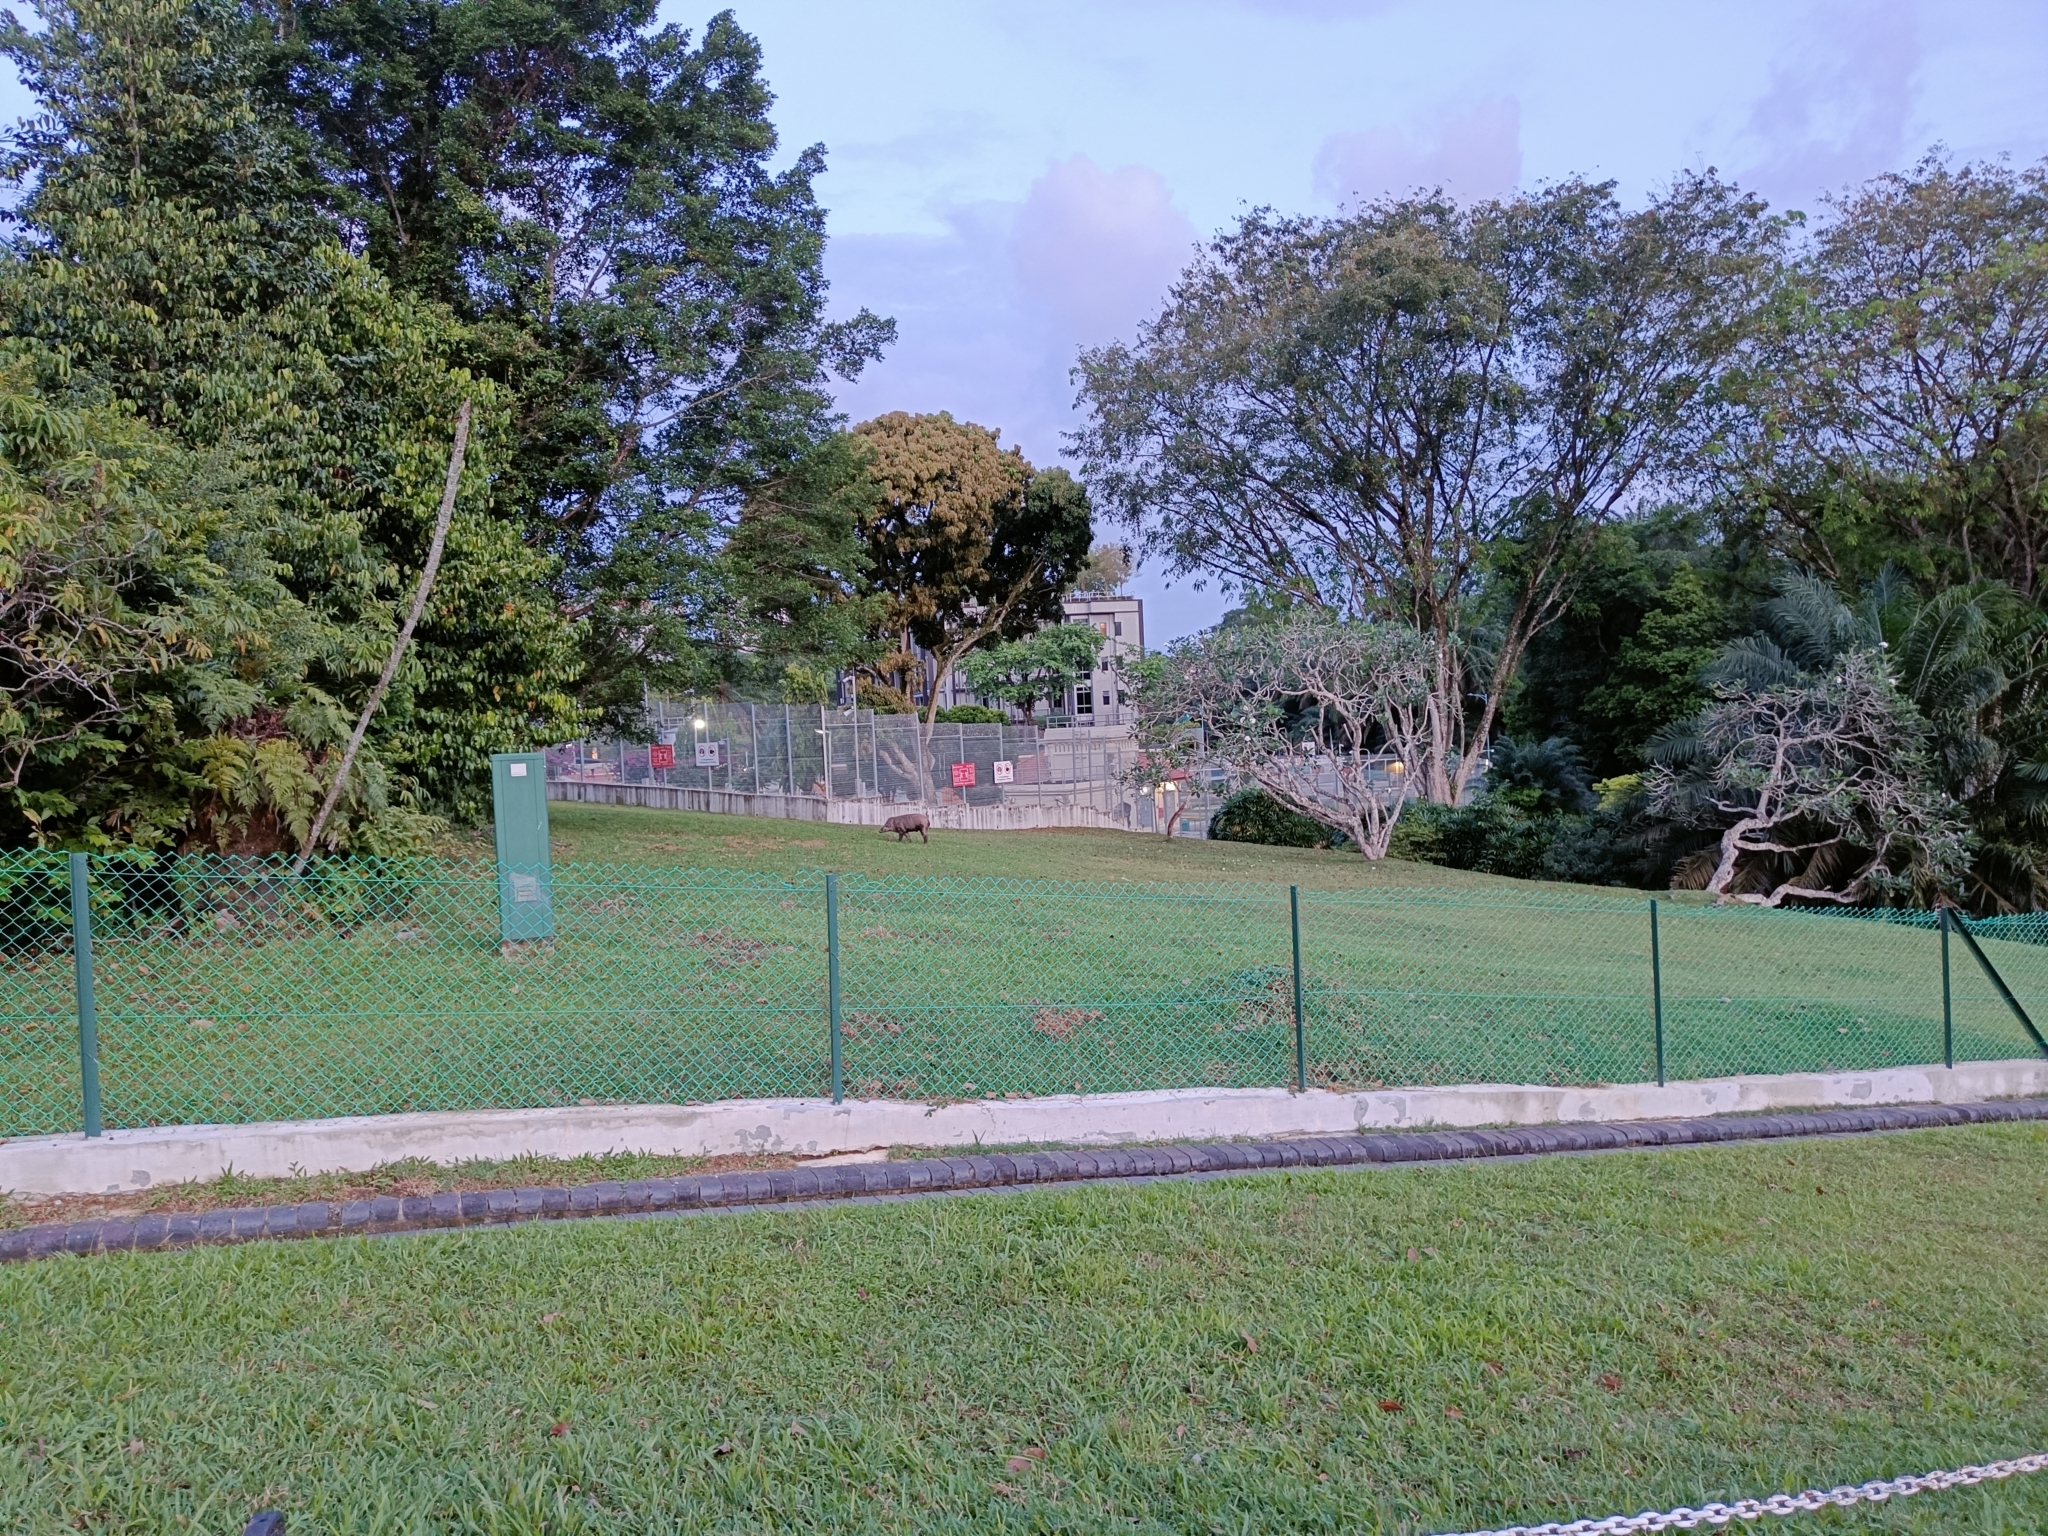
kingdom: Animalia
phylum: Chordata
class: Mammalia
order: Artiodactyla
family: Suidae
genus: Sus
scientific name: Sus scrofa
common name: Wild boar
